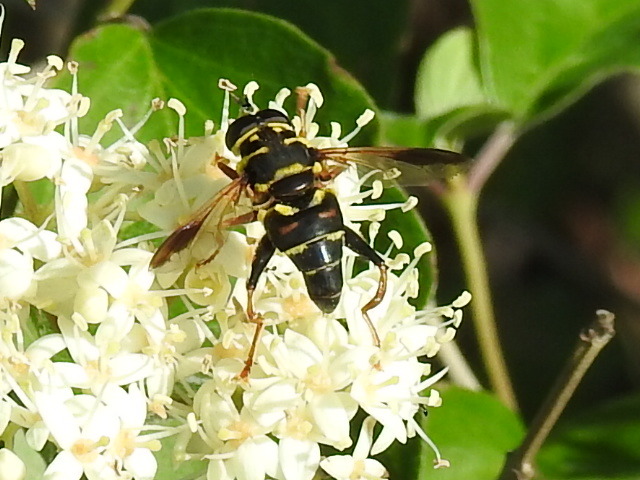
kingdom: Animalia
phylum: Arthropoda
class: Insecta
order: Diptera
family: Syrphidae
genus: Meromacrus
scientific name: Meromacrus acutus
